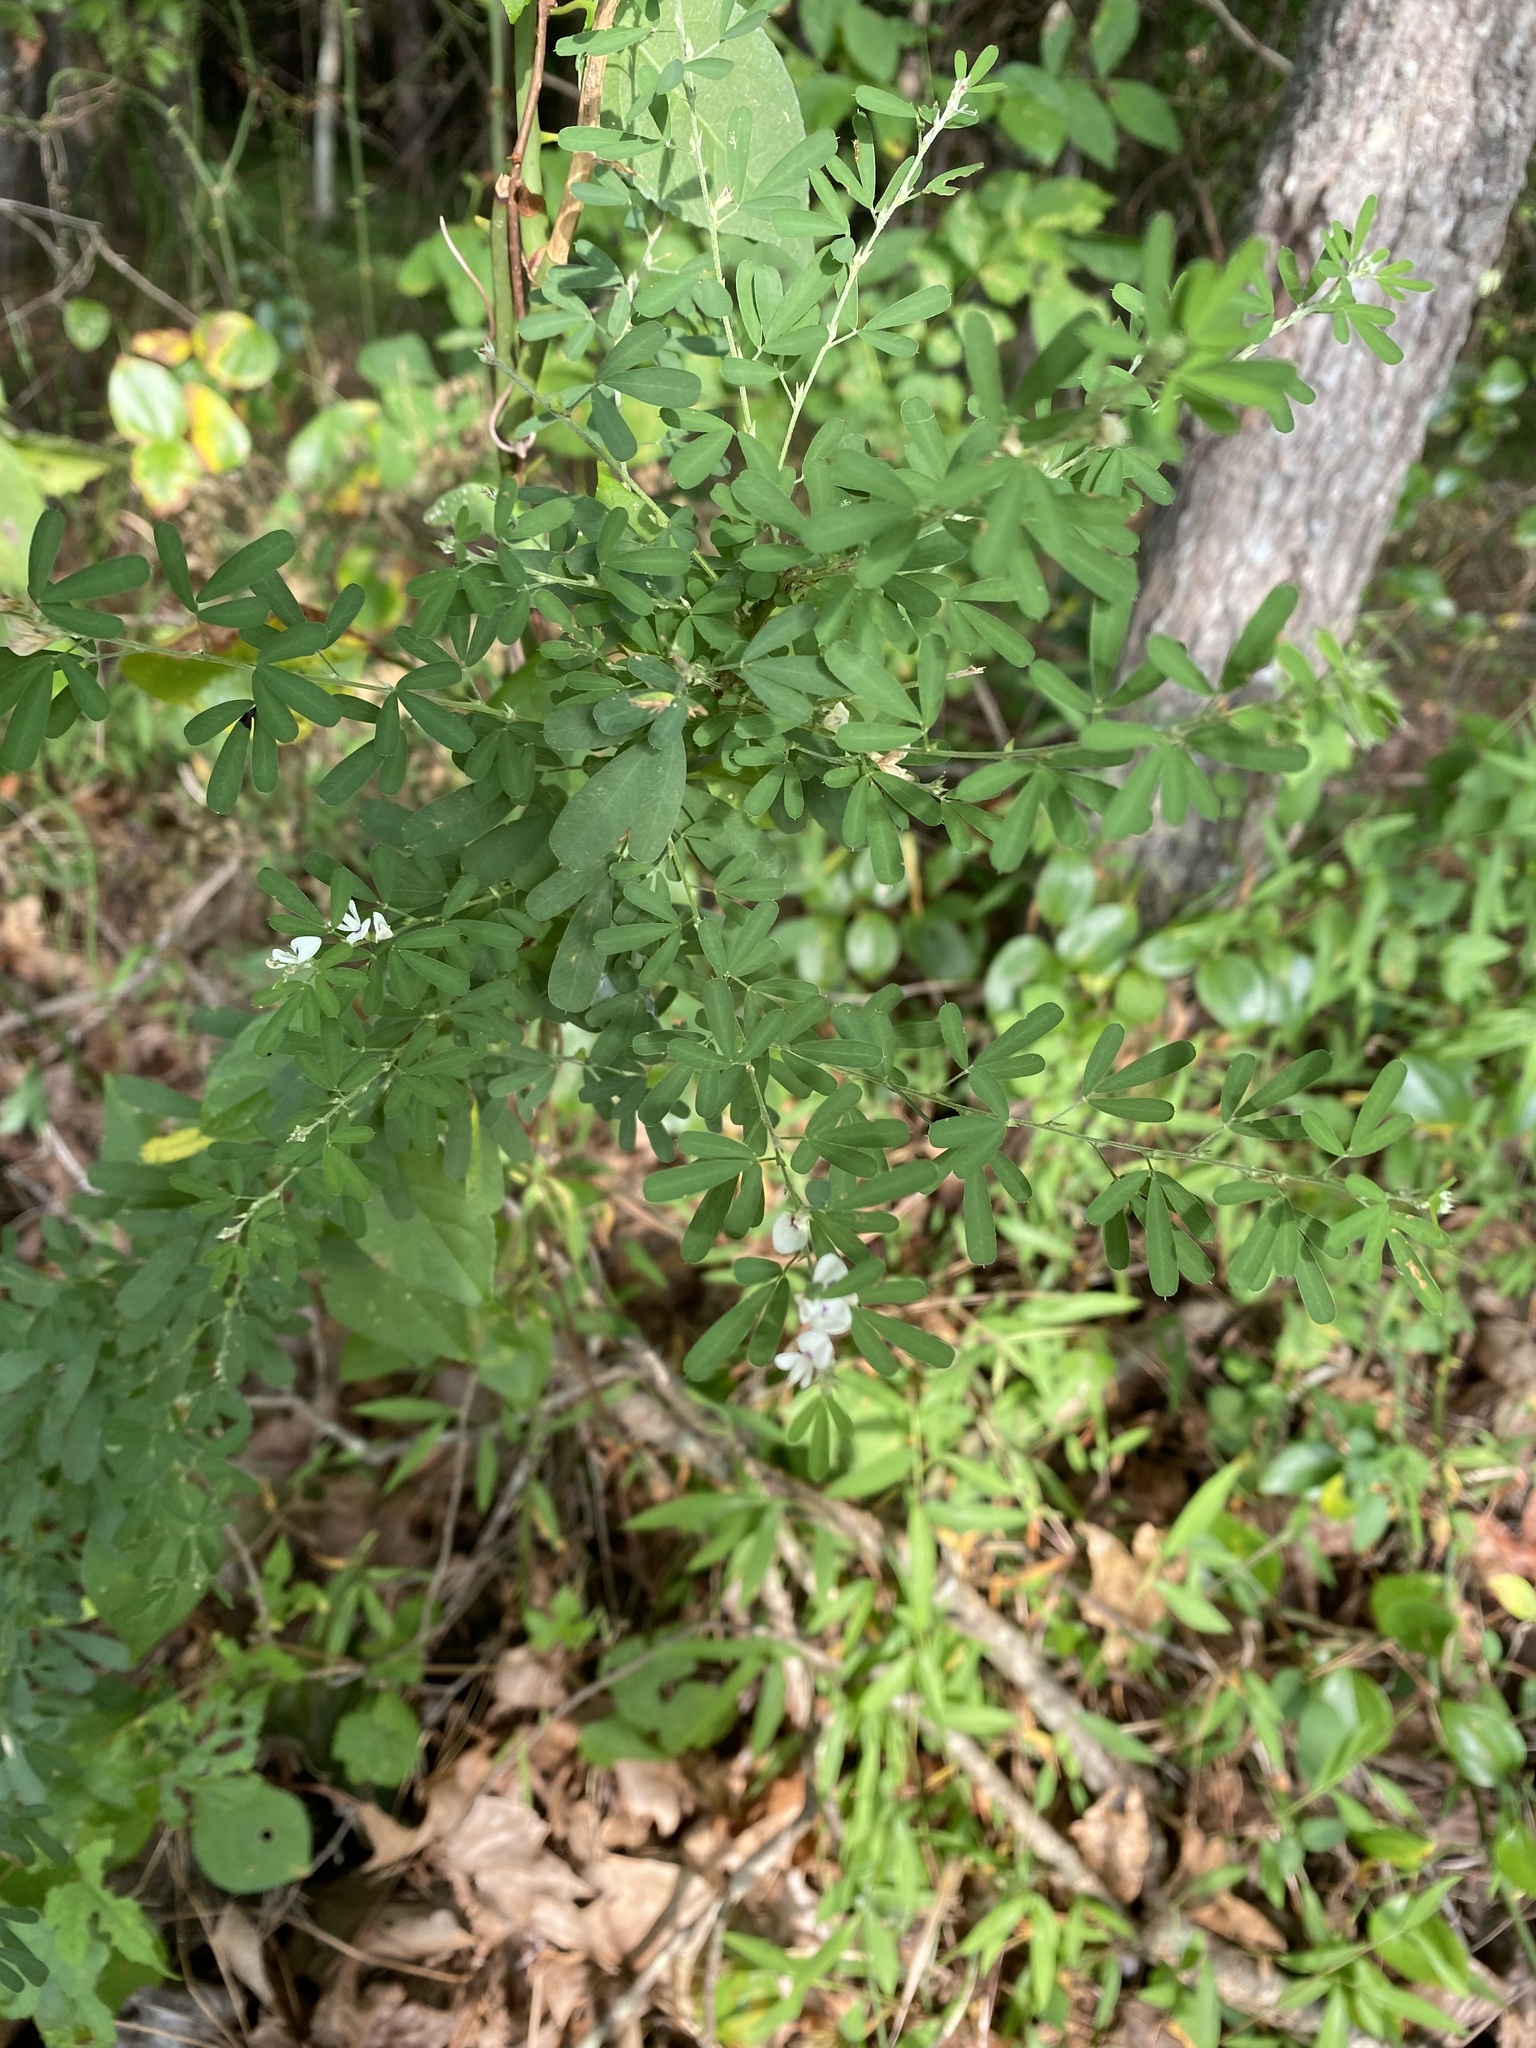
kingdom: Plantae
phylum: Tracheophyta
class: Magnoliopsida
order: Fabales
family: Fabaceae
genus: Lespedeza
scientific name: Lespedeza cuneata
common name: Chinese bush-clover
